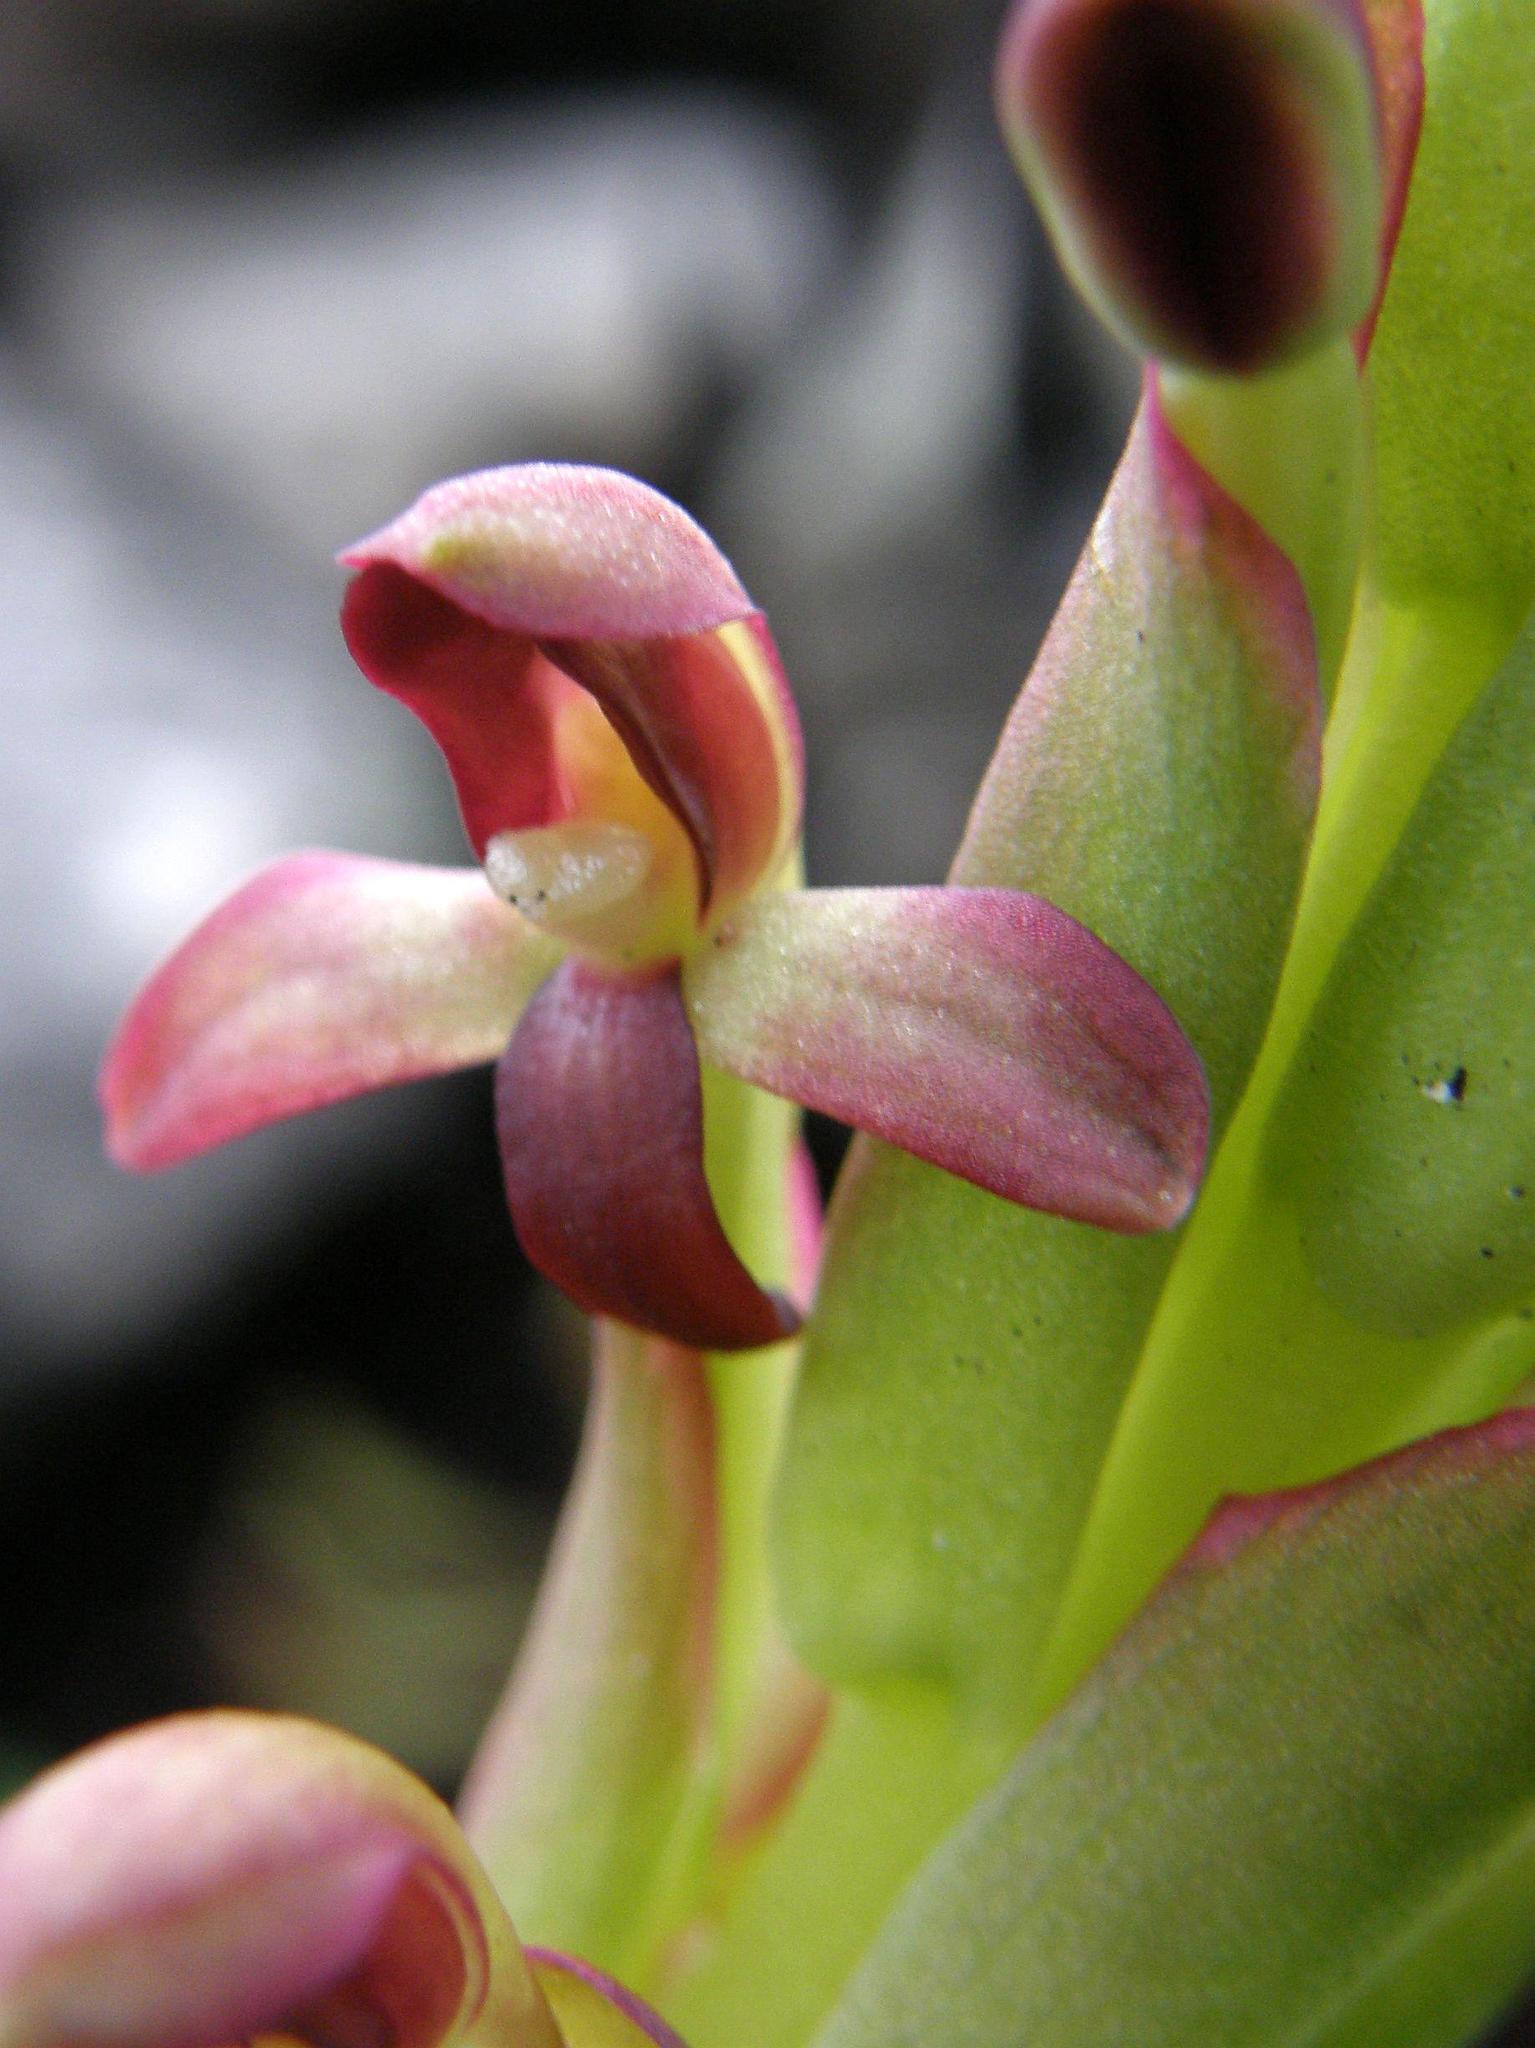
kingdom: Plantae
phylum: Tracheophyta
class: Liliopsida
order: Asparagales
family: Orchidaceae
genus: Disa
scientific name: Disa comosa
